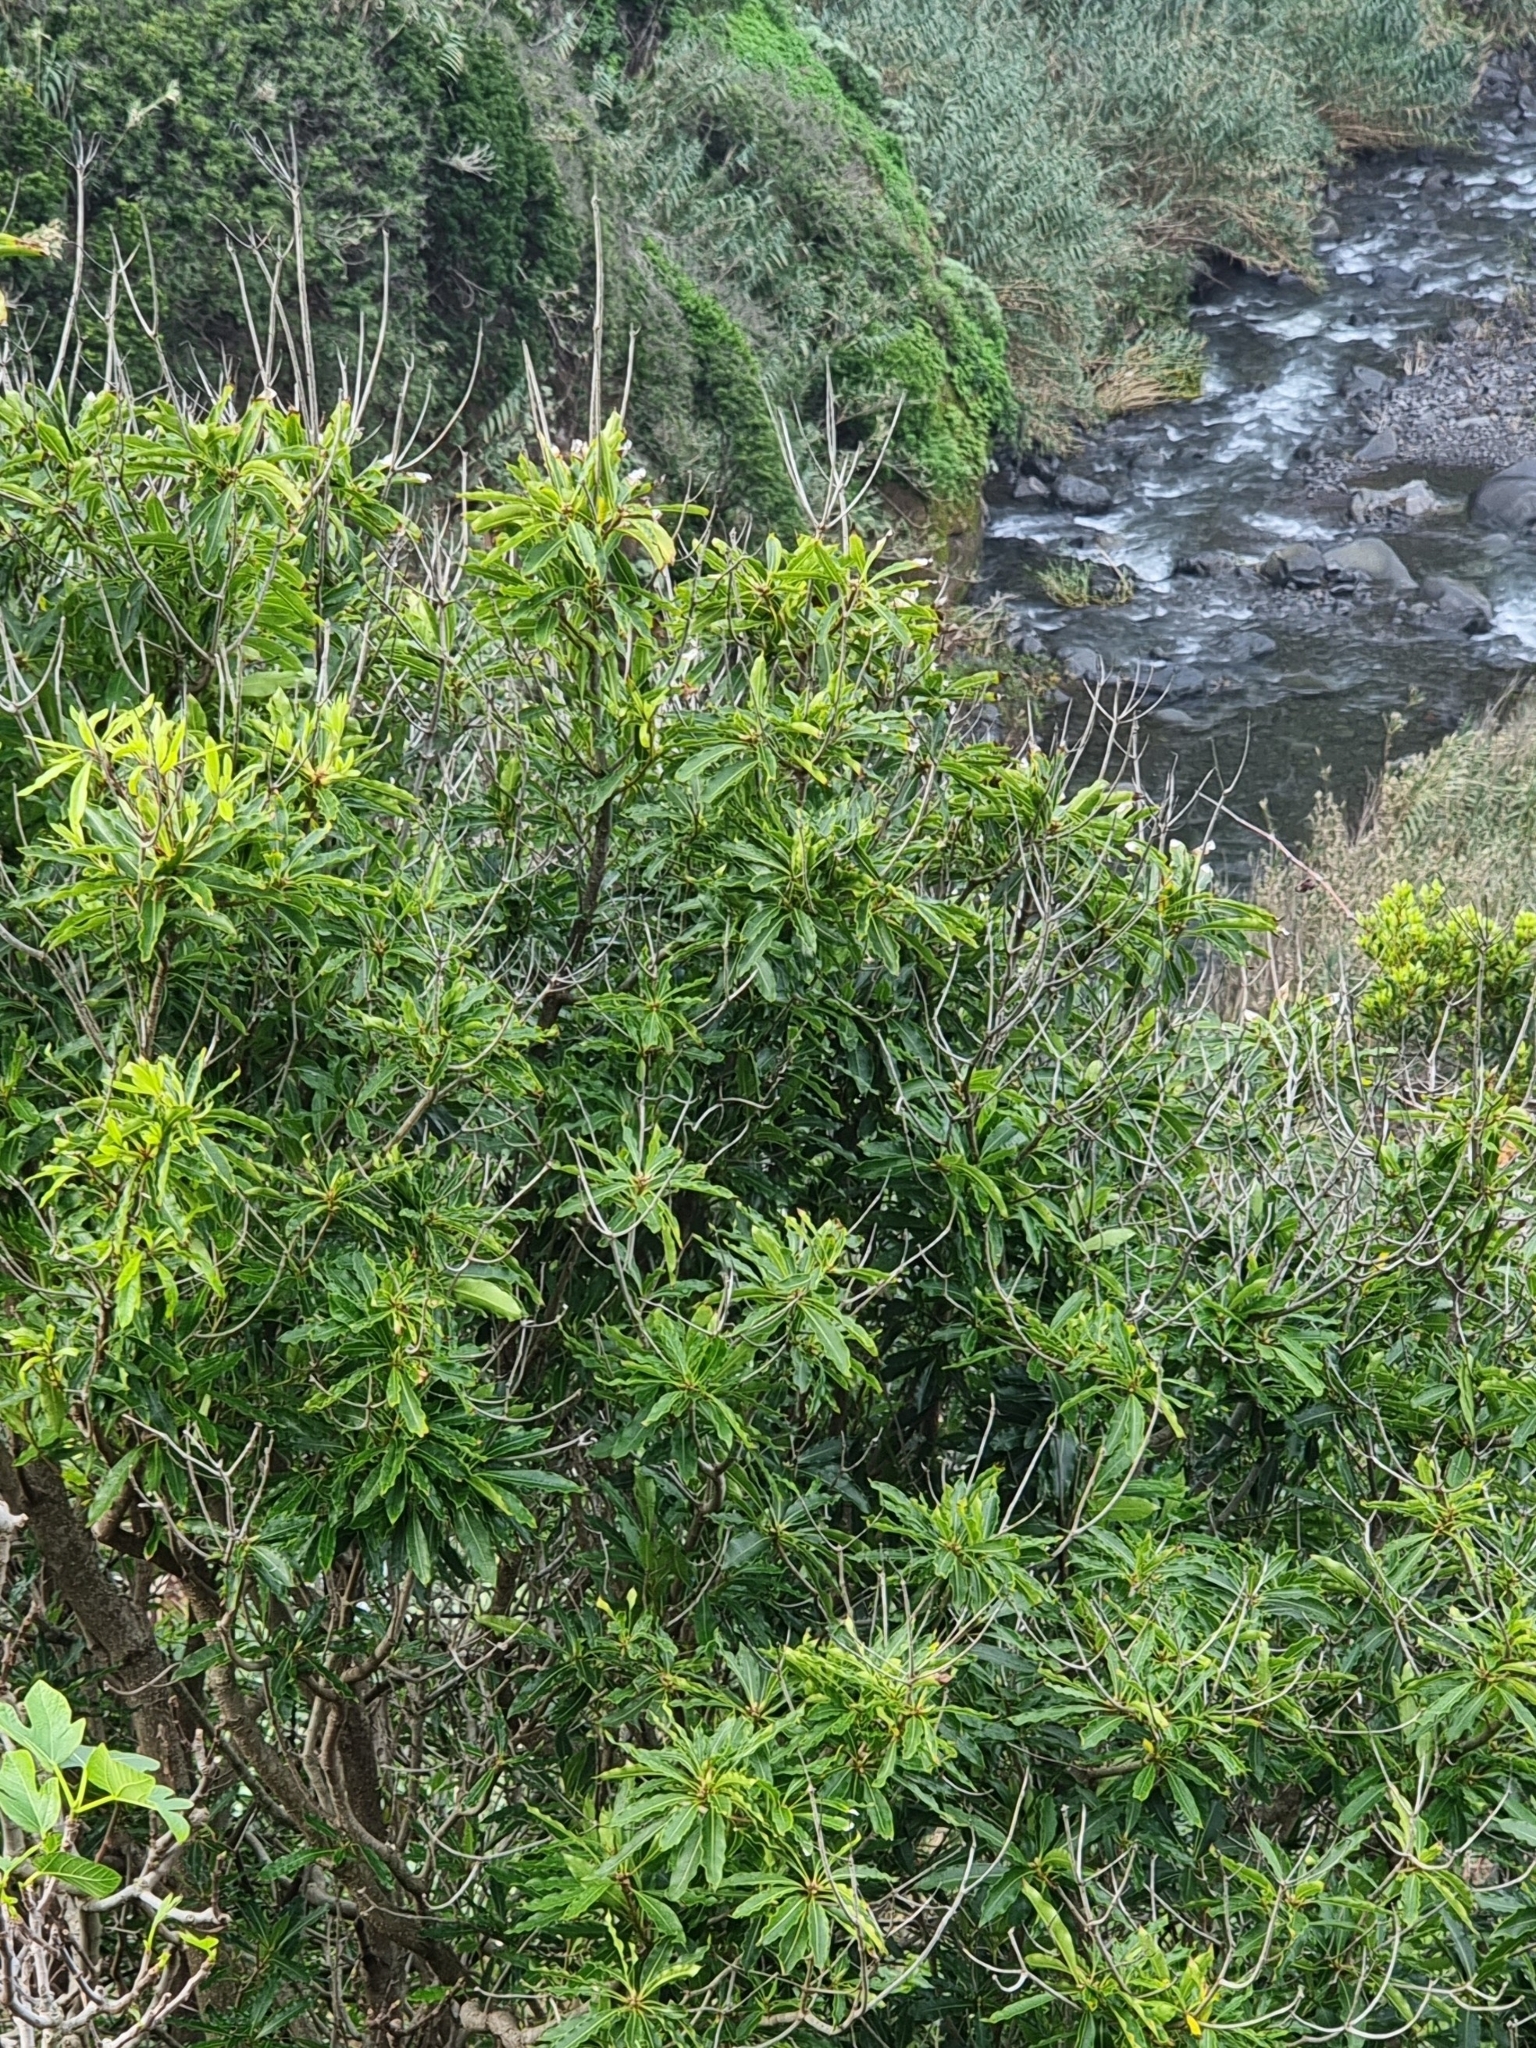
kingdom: Plantae
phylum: Tracheophyta
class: Magnoliopsida
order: Apiales
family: Pittosporaceae
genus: Pittosporum
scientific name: Pittosporum undulatum
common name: Australian cheesewood
